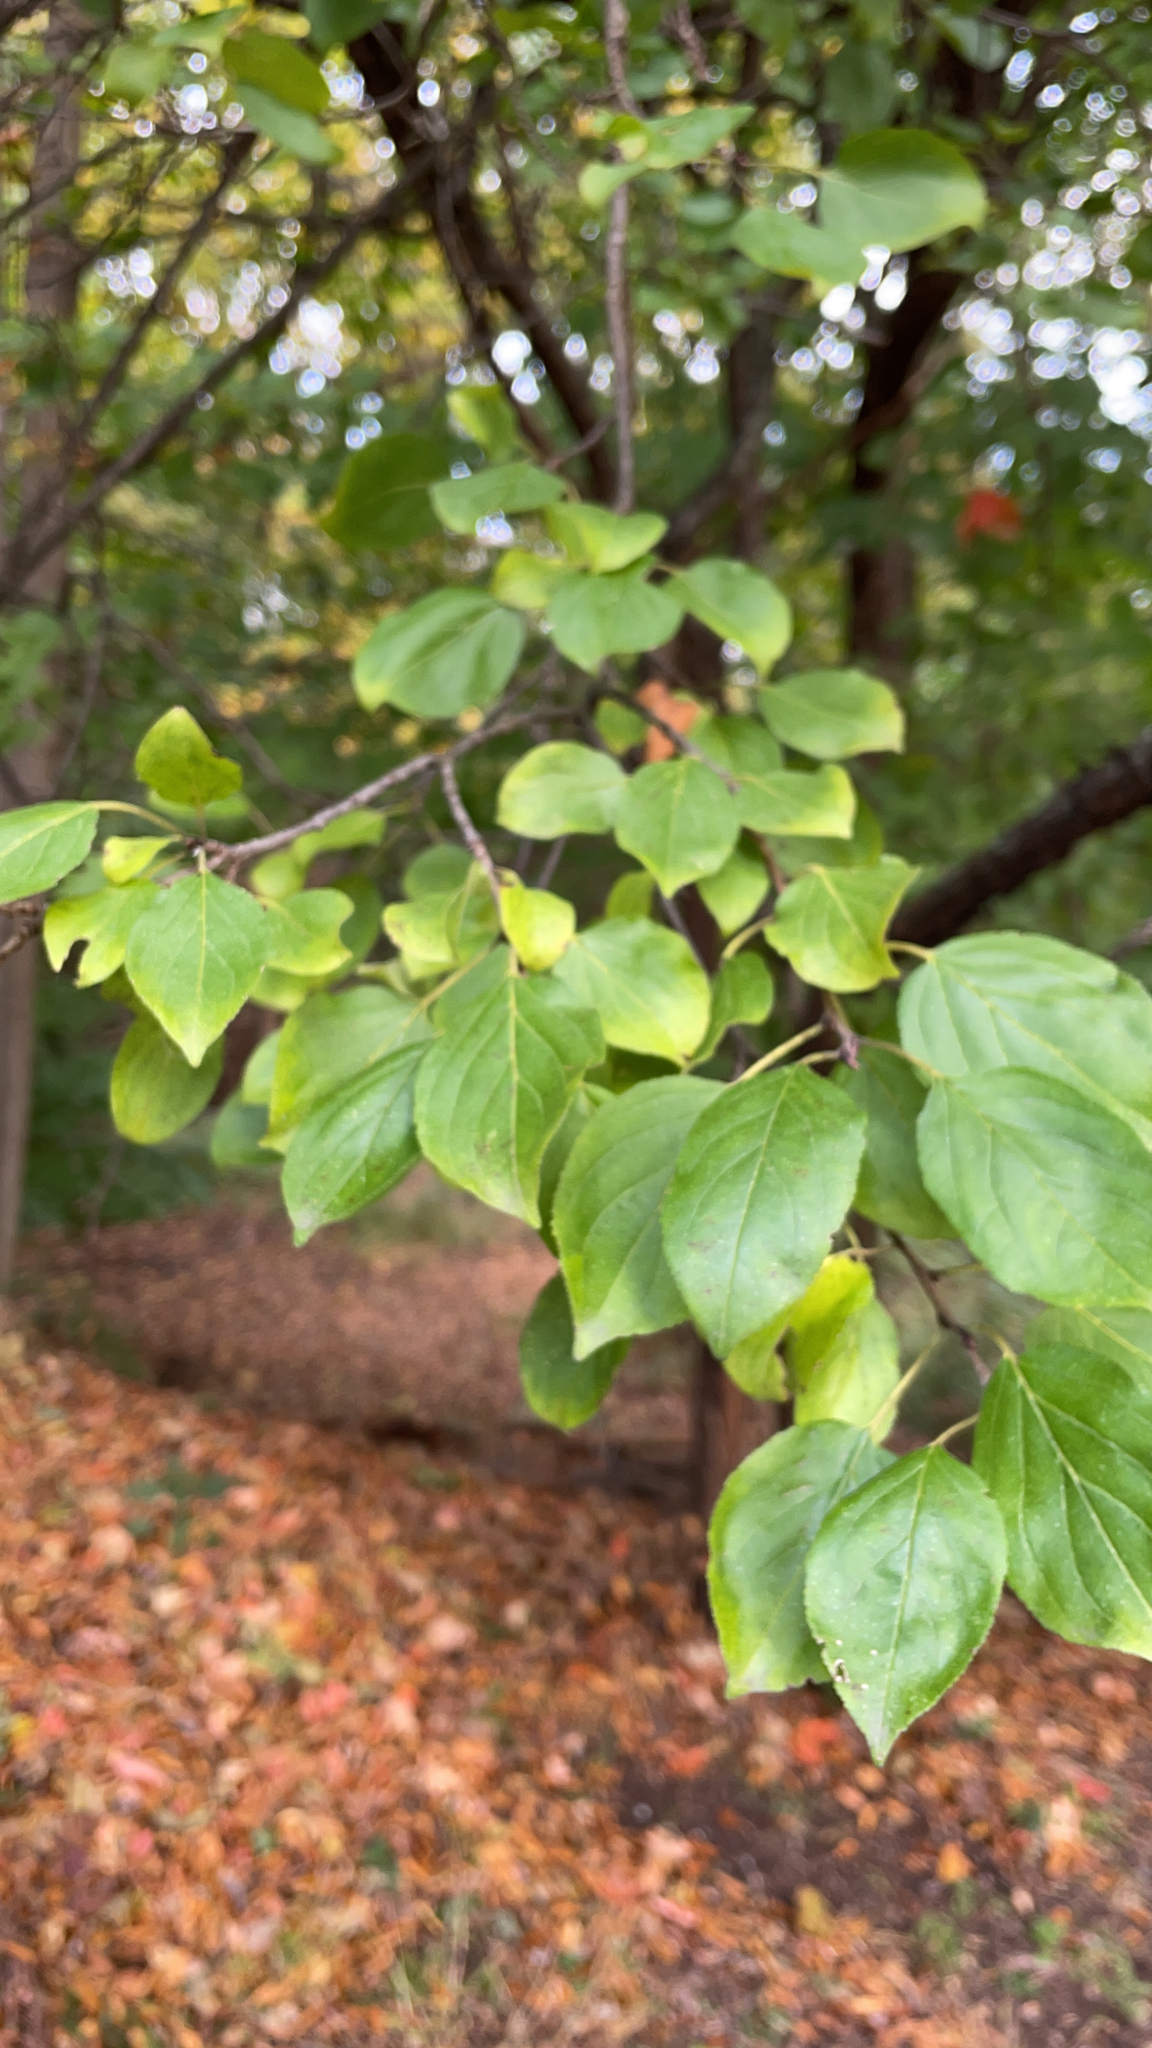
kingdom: Plantae
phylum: Tracheophyta
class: Magnoliopsida
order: Rosales
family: Rhamnaceae
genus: Rhamnus
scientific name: Rhamnus cathartica
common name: Common buckthorn
